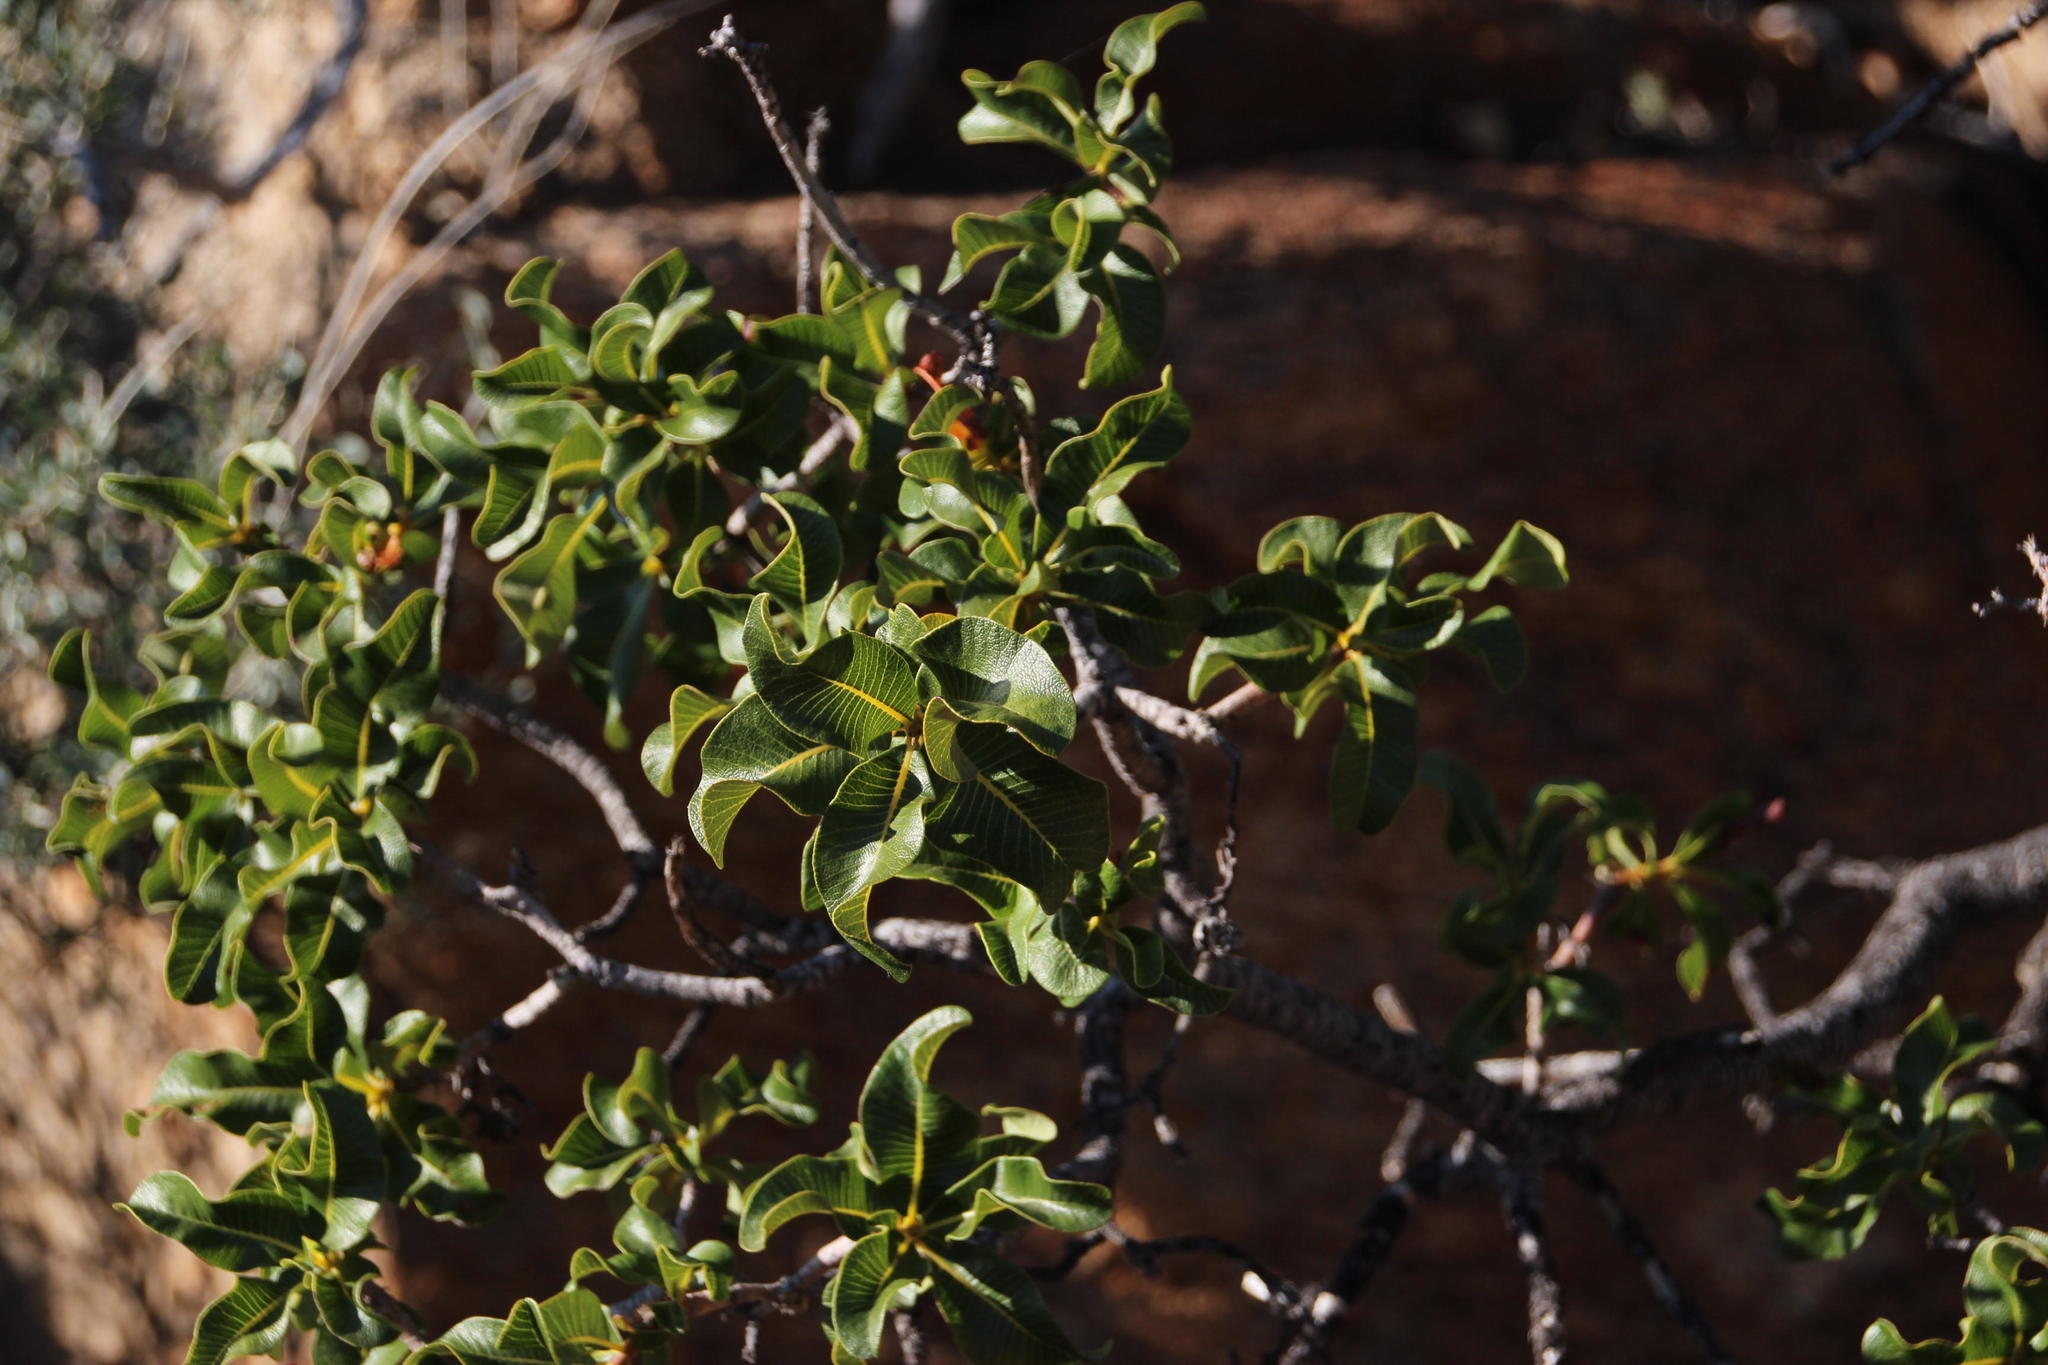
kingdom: Plantae
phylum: Tracheophyta
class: Magnoliopsida
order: Sapindales
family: Anacardiaceae
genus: Ozoroa
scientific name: Ozoroa dispar
